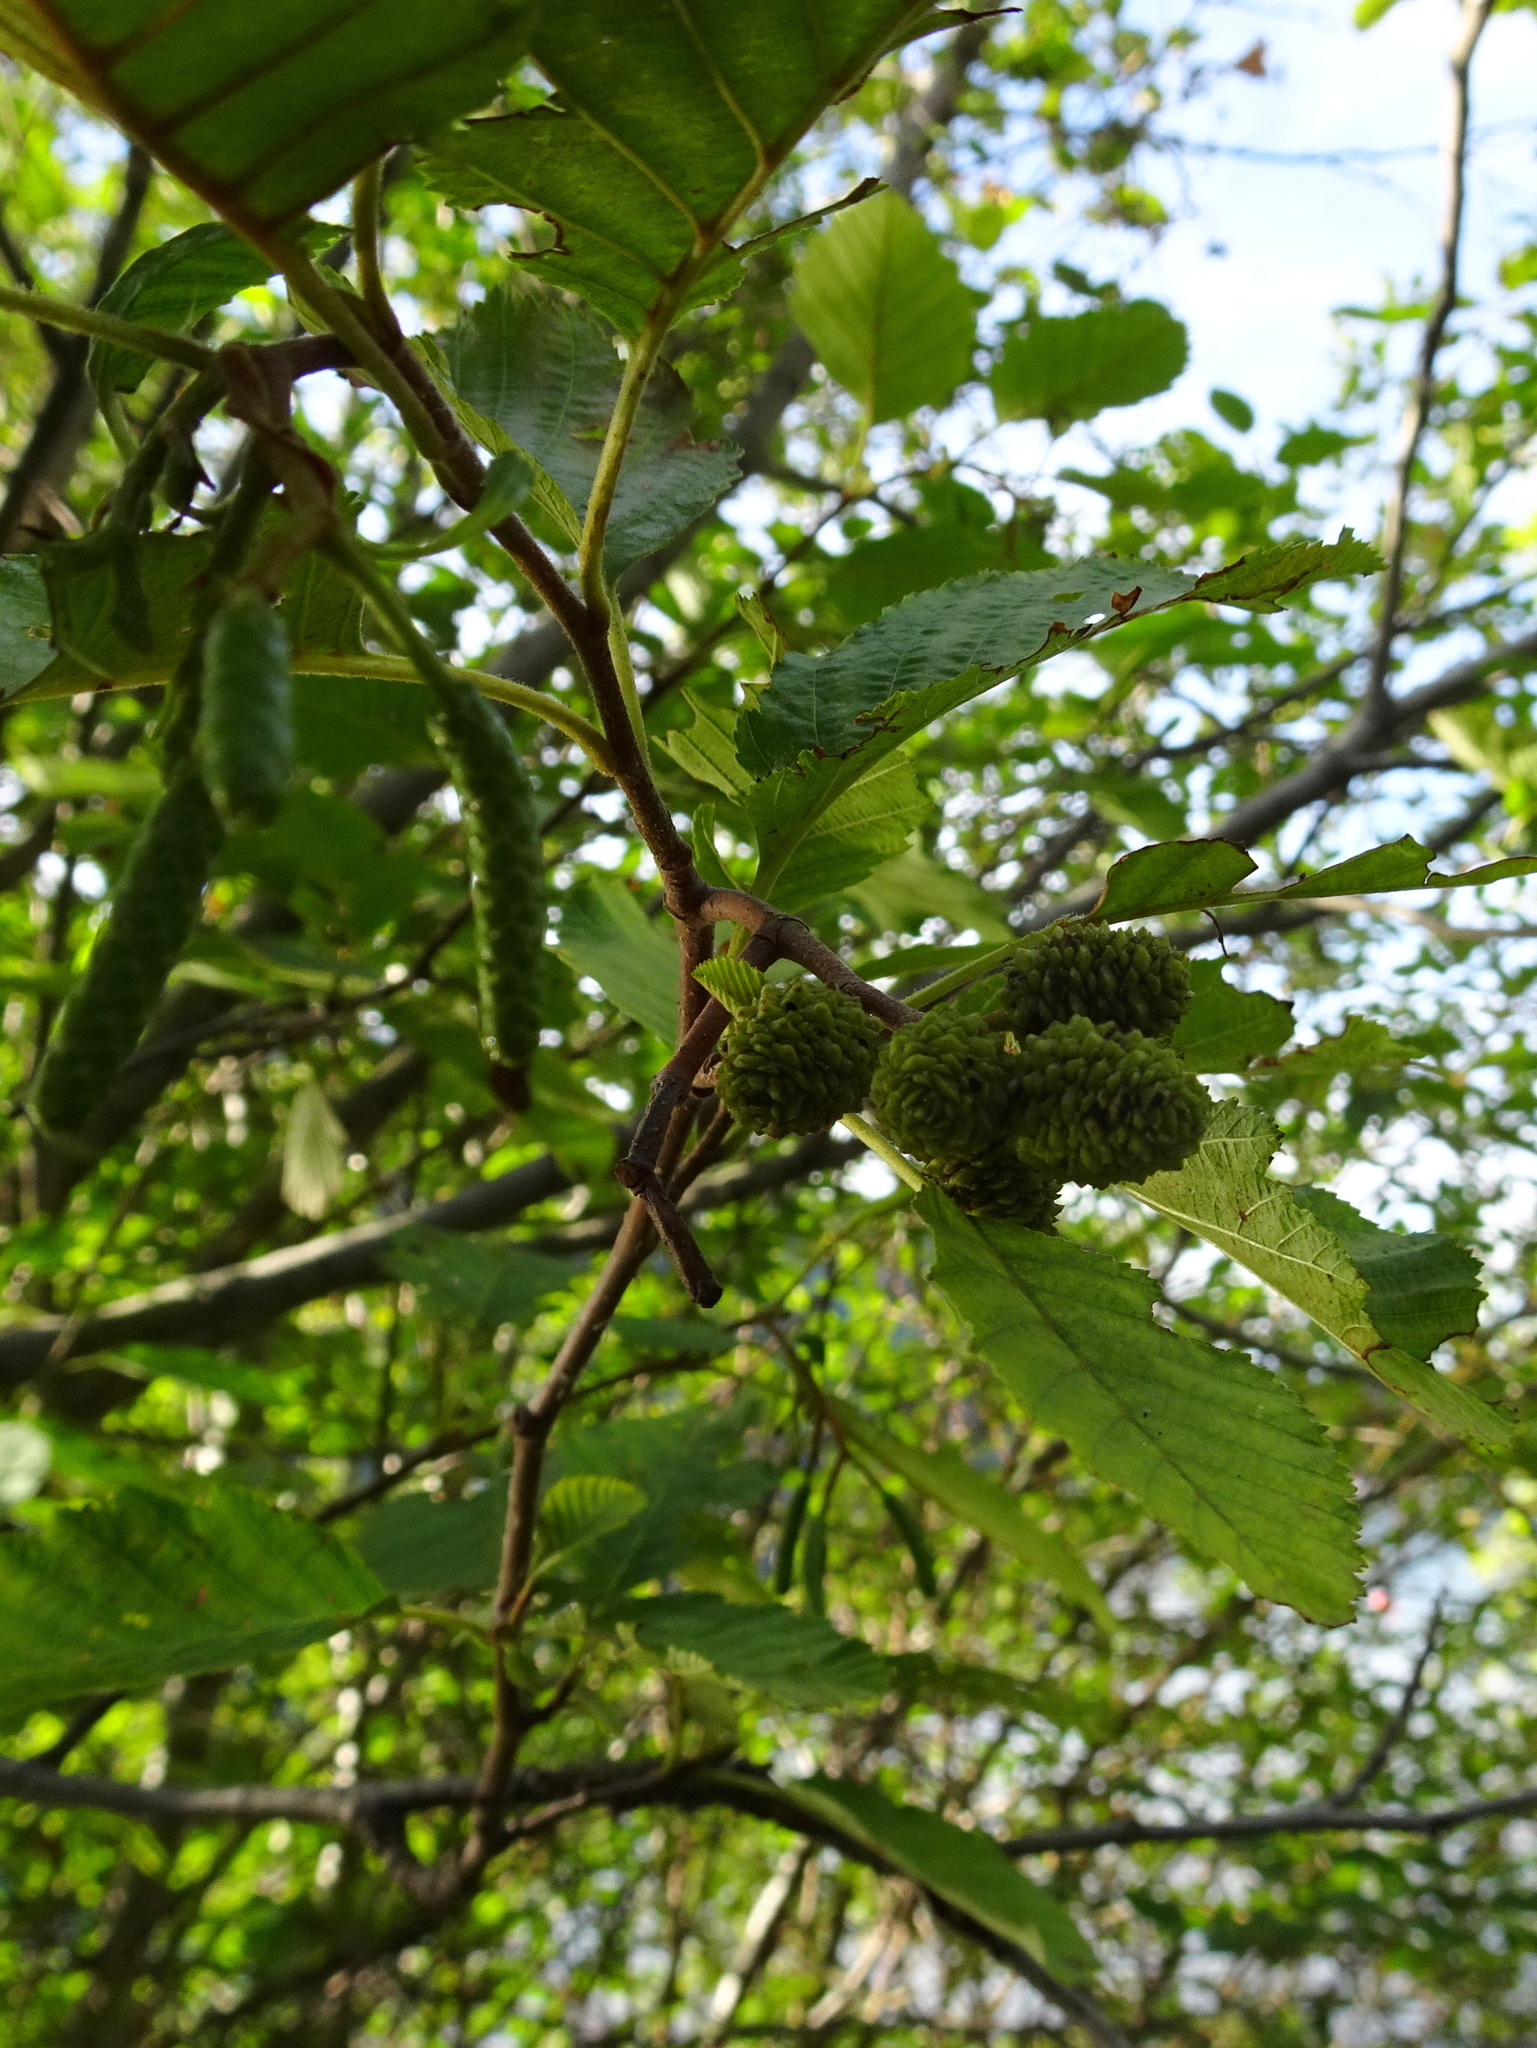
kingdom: Plantae
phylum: Tracheophyta
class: Magnoliopsida
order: Fagales
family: Betulaceae
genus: Alnus
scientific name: Alnus incana
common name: Grey alder
